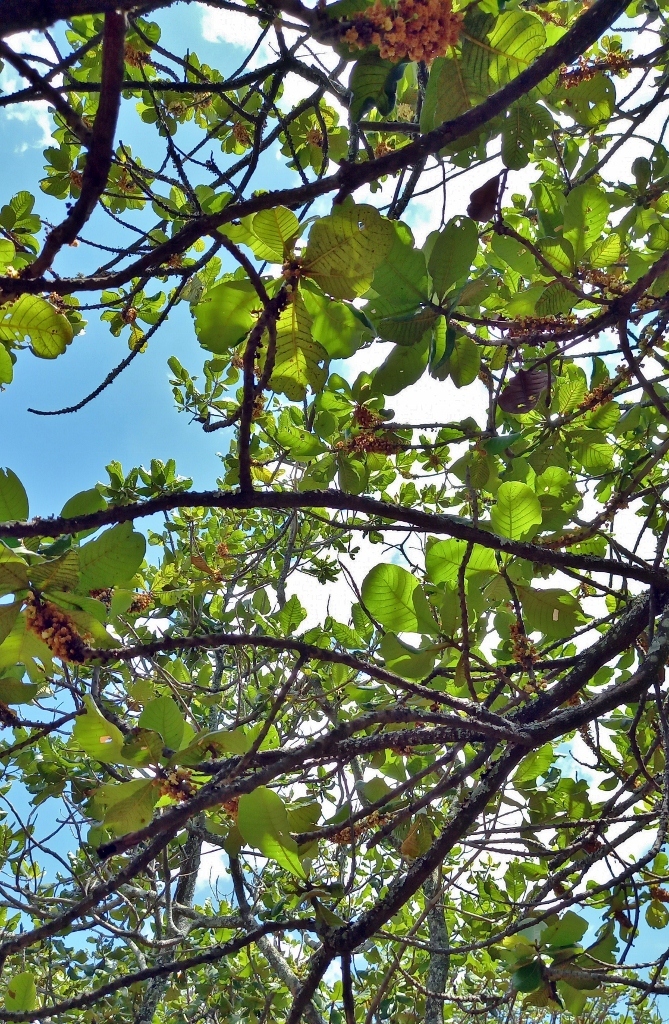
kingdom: Plantae
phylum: Tracheophyta
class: Magnoliopsida
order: Malpighiales
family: Phyllanthaceae
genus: Uapaca
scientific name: Uapaca kirkiana
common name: Wild loquat
